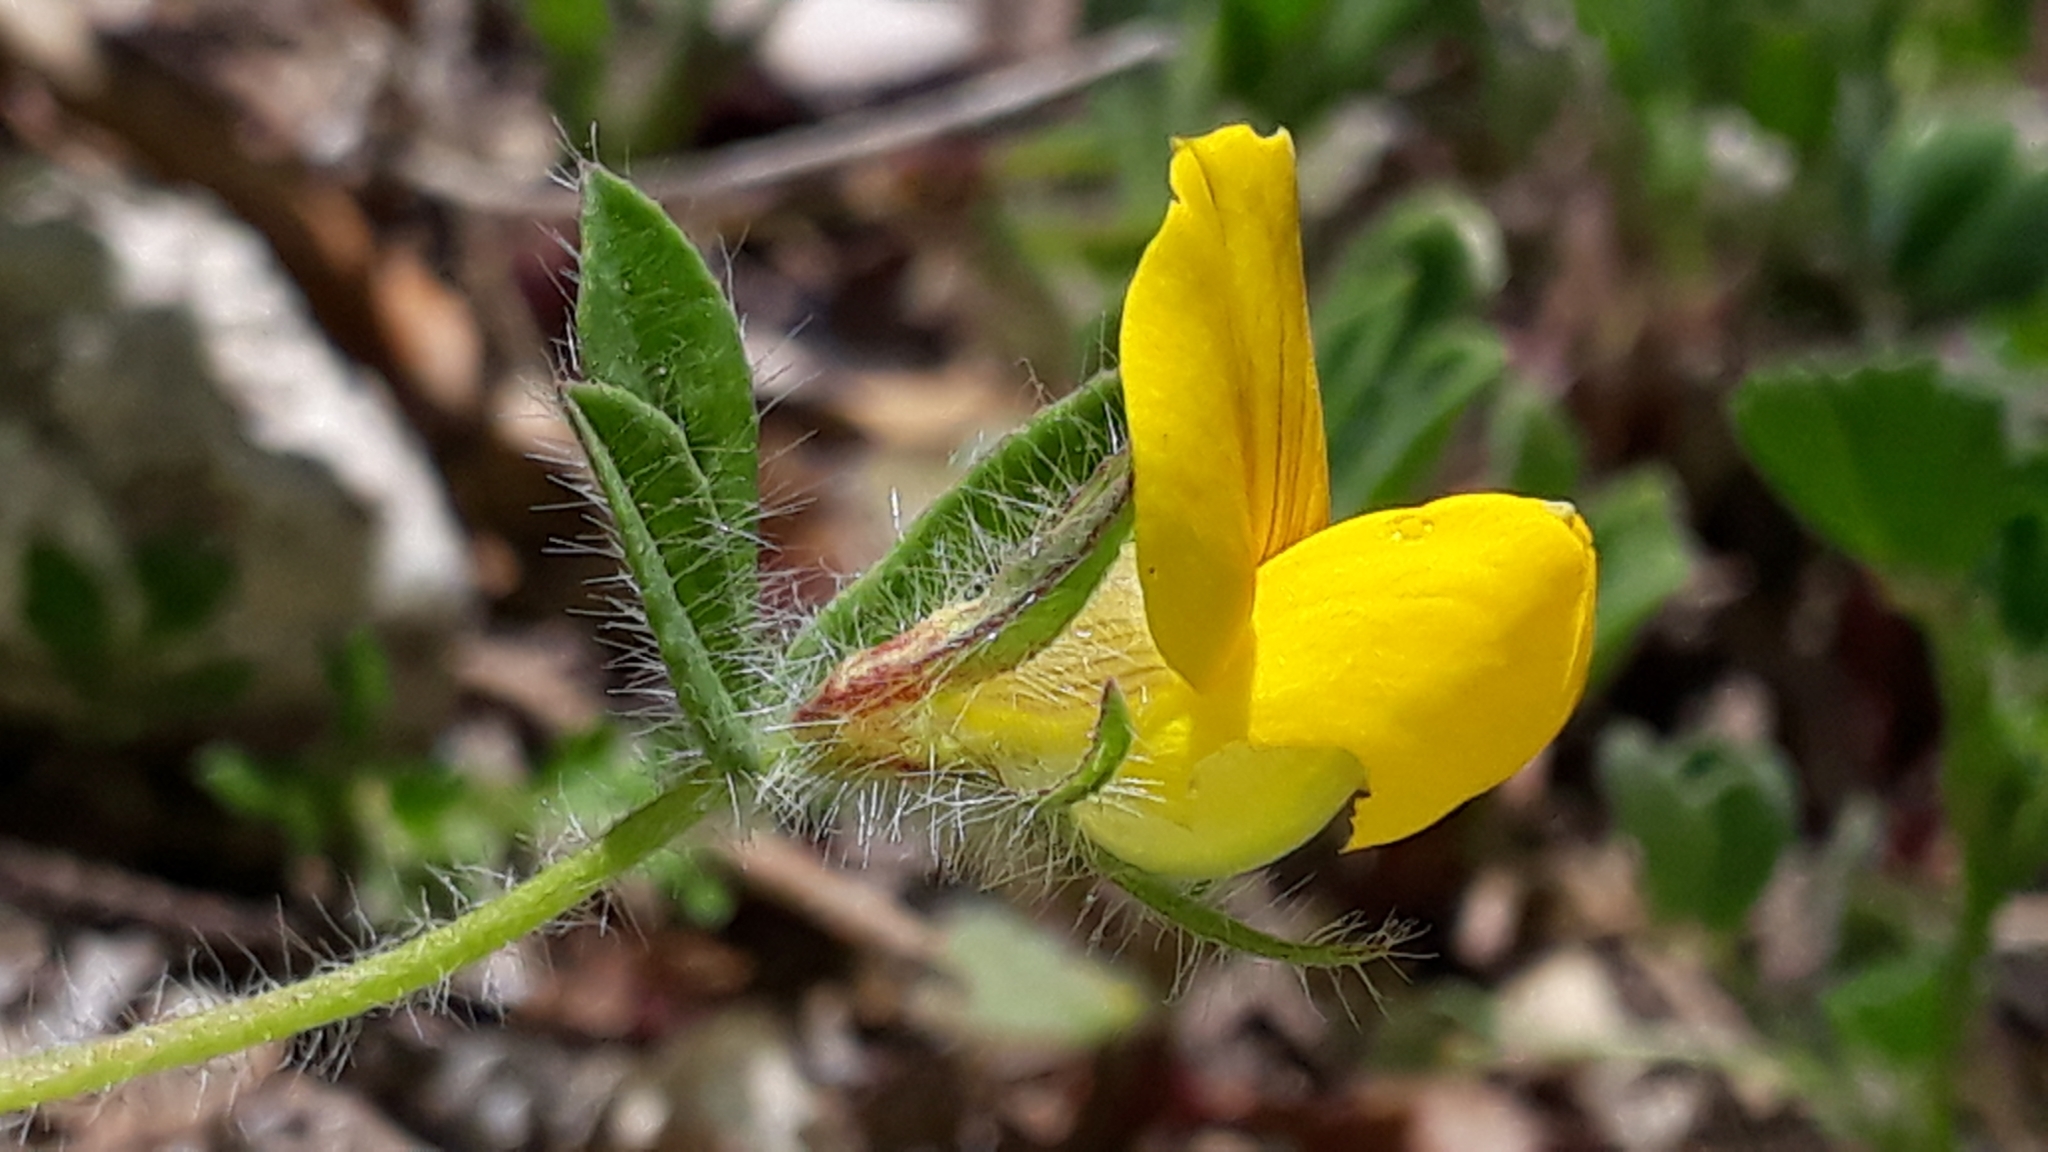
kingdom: Plantae
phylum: Tracheophyta
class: Magnoliopsida
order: Fabales
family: Fabaceae
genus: Lotus
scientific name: Lotus edulis
